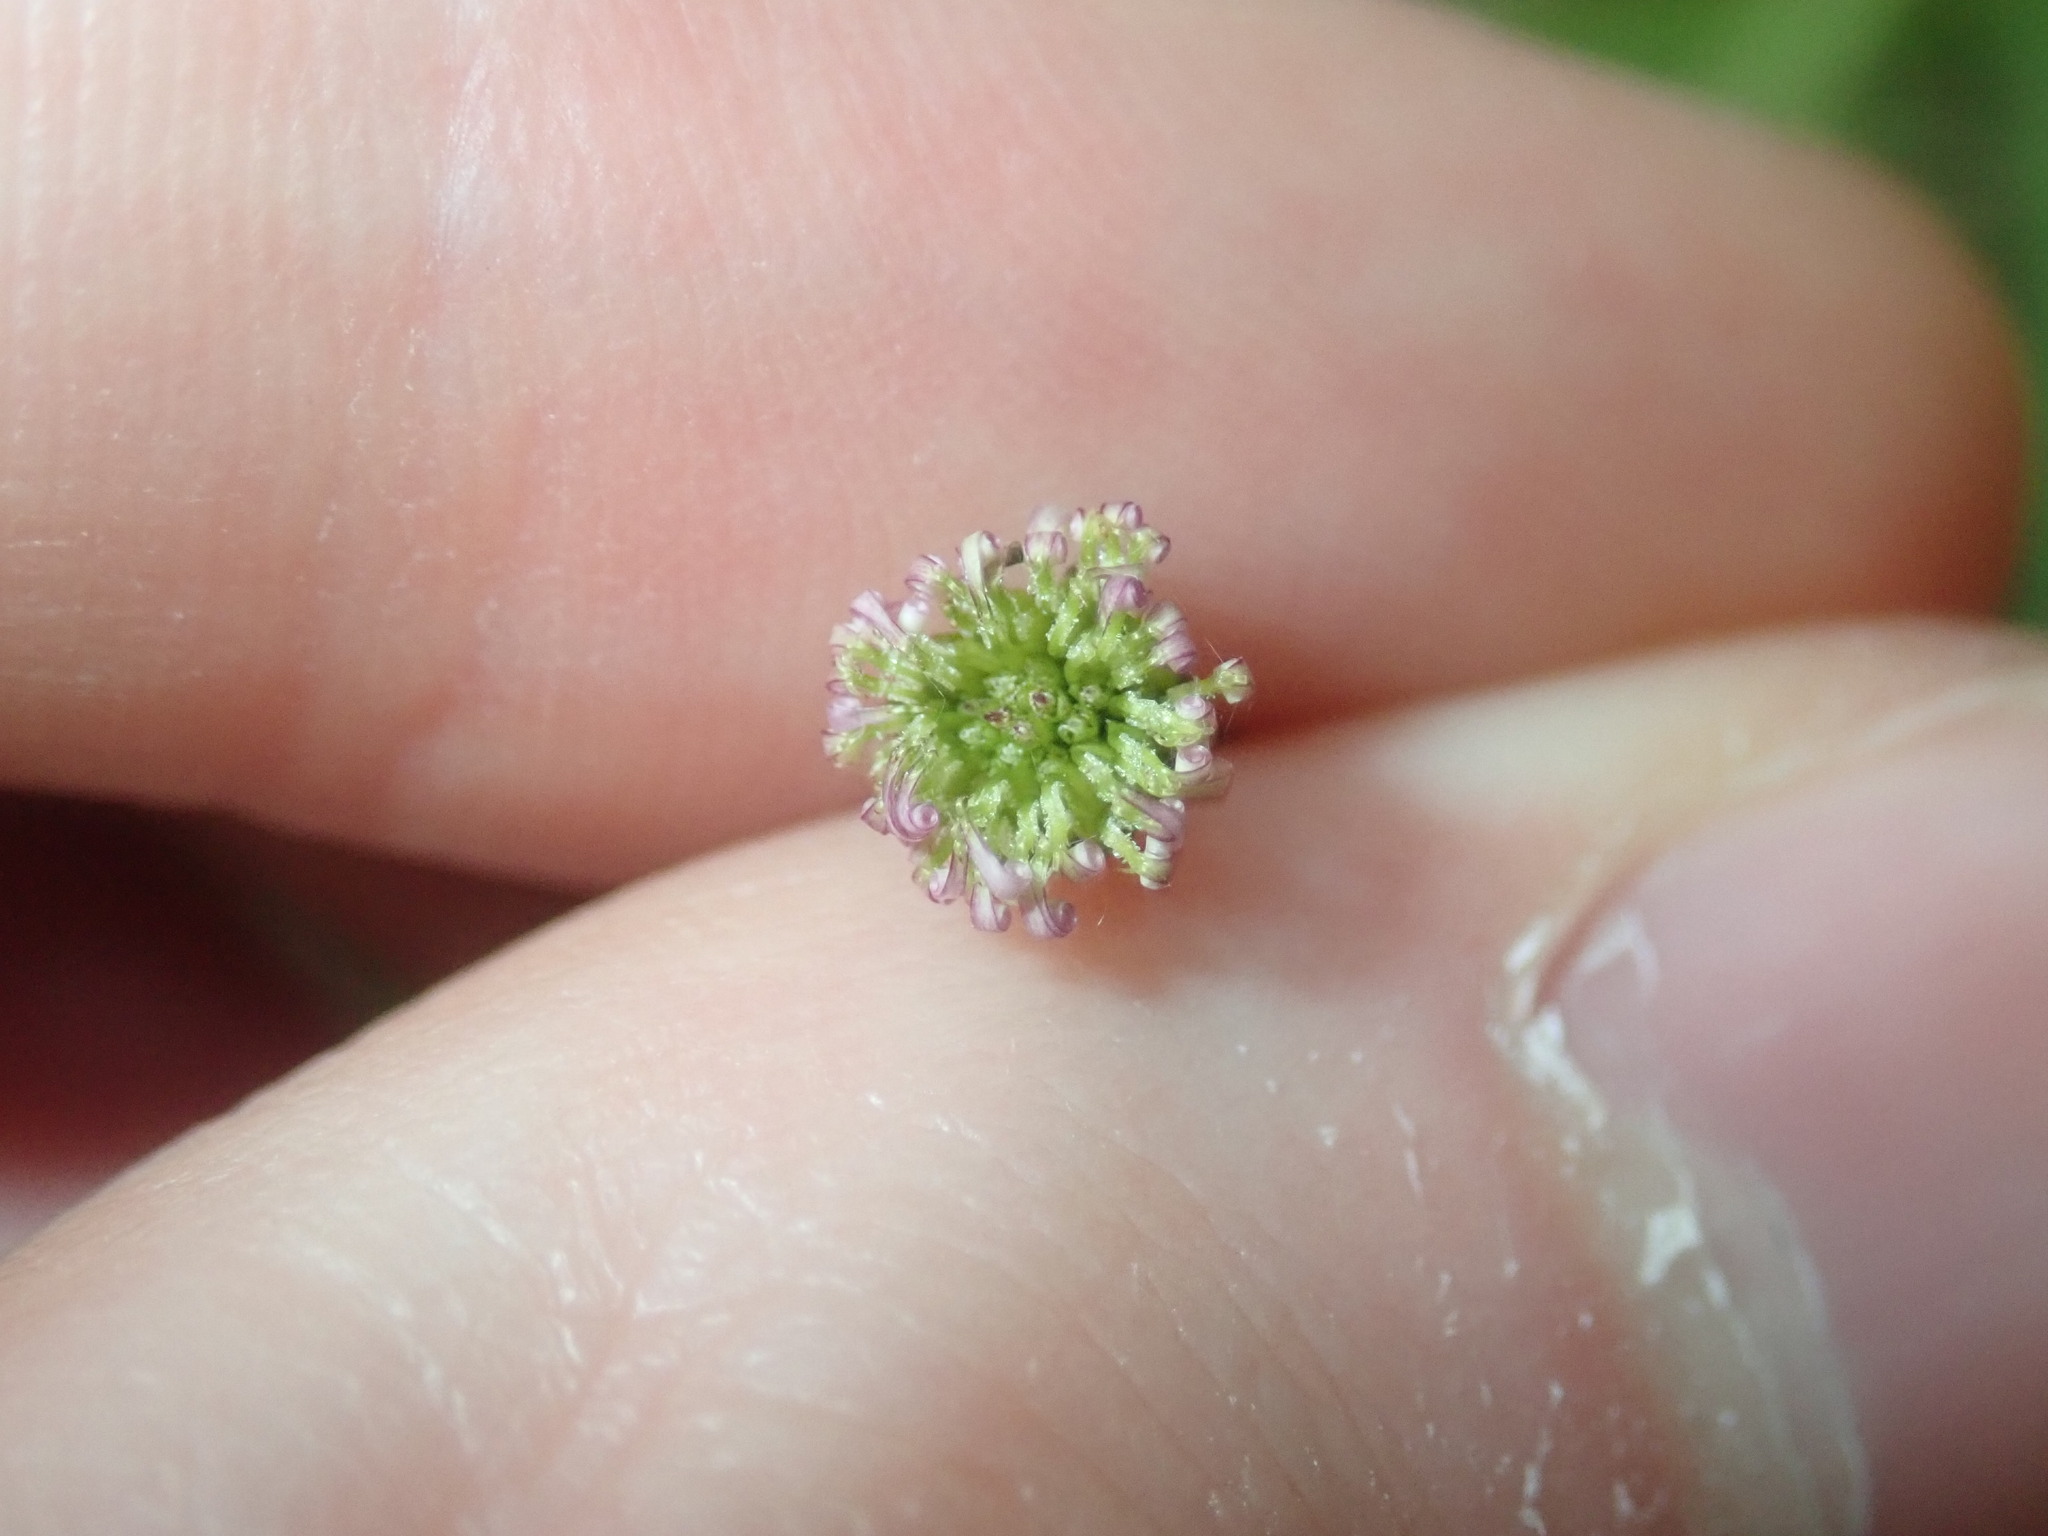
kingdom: Plantae
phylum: Tracheophyta
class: Magnoliopsida
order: Asterales
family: Asteraceae
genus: Lagenophora
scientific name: Lagenophora sublyrata ter
